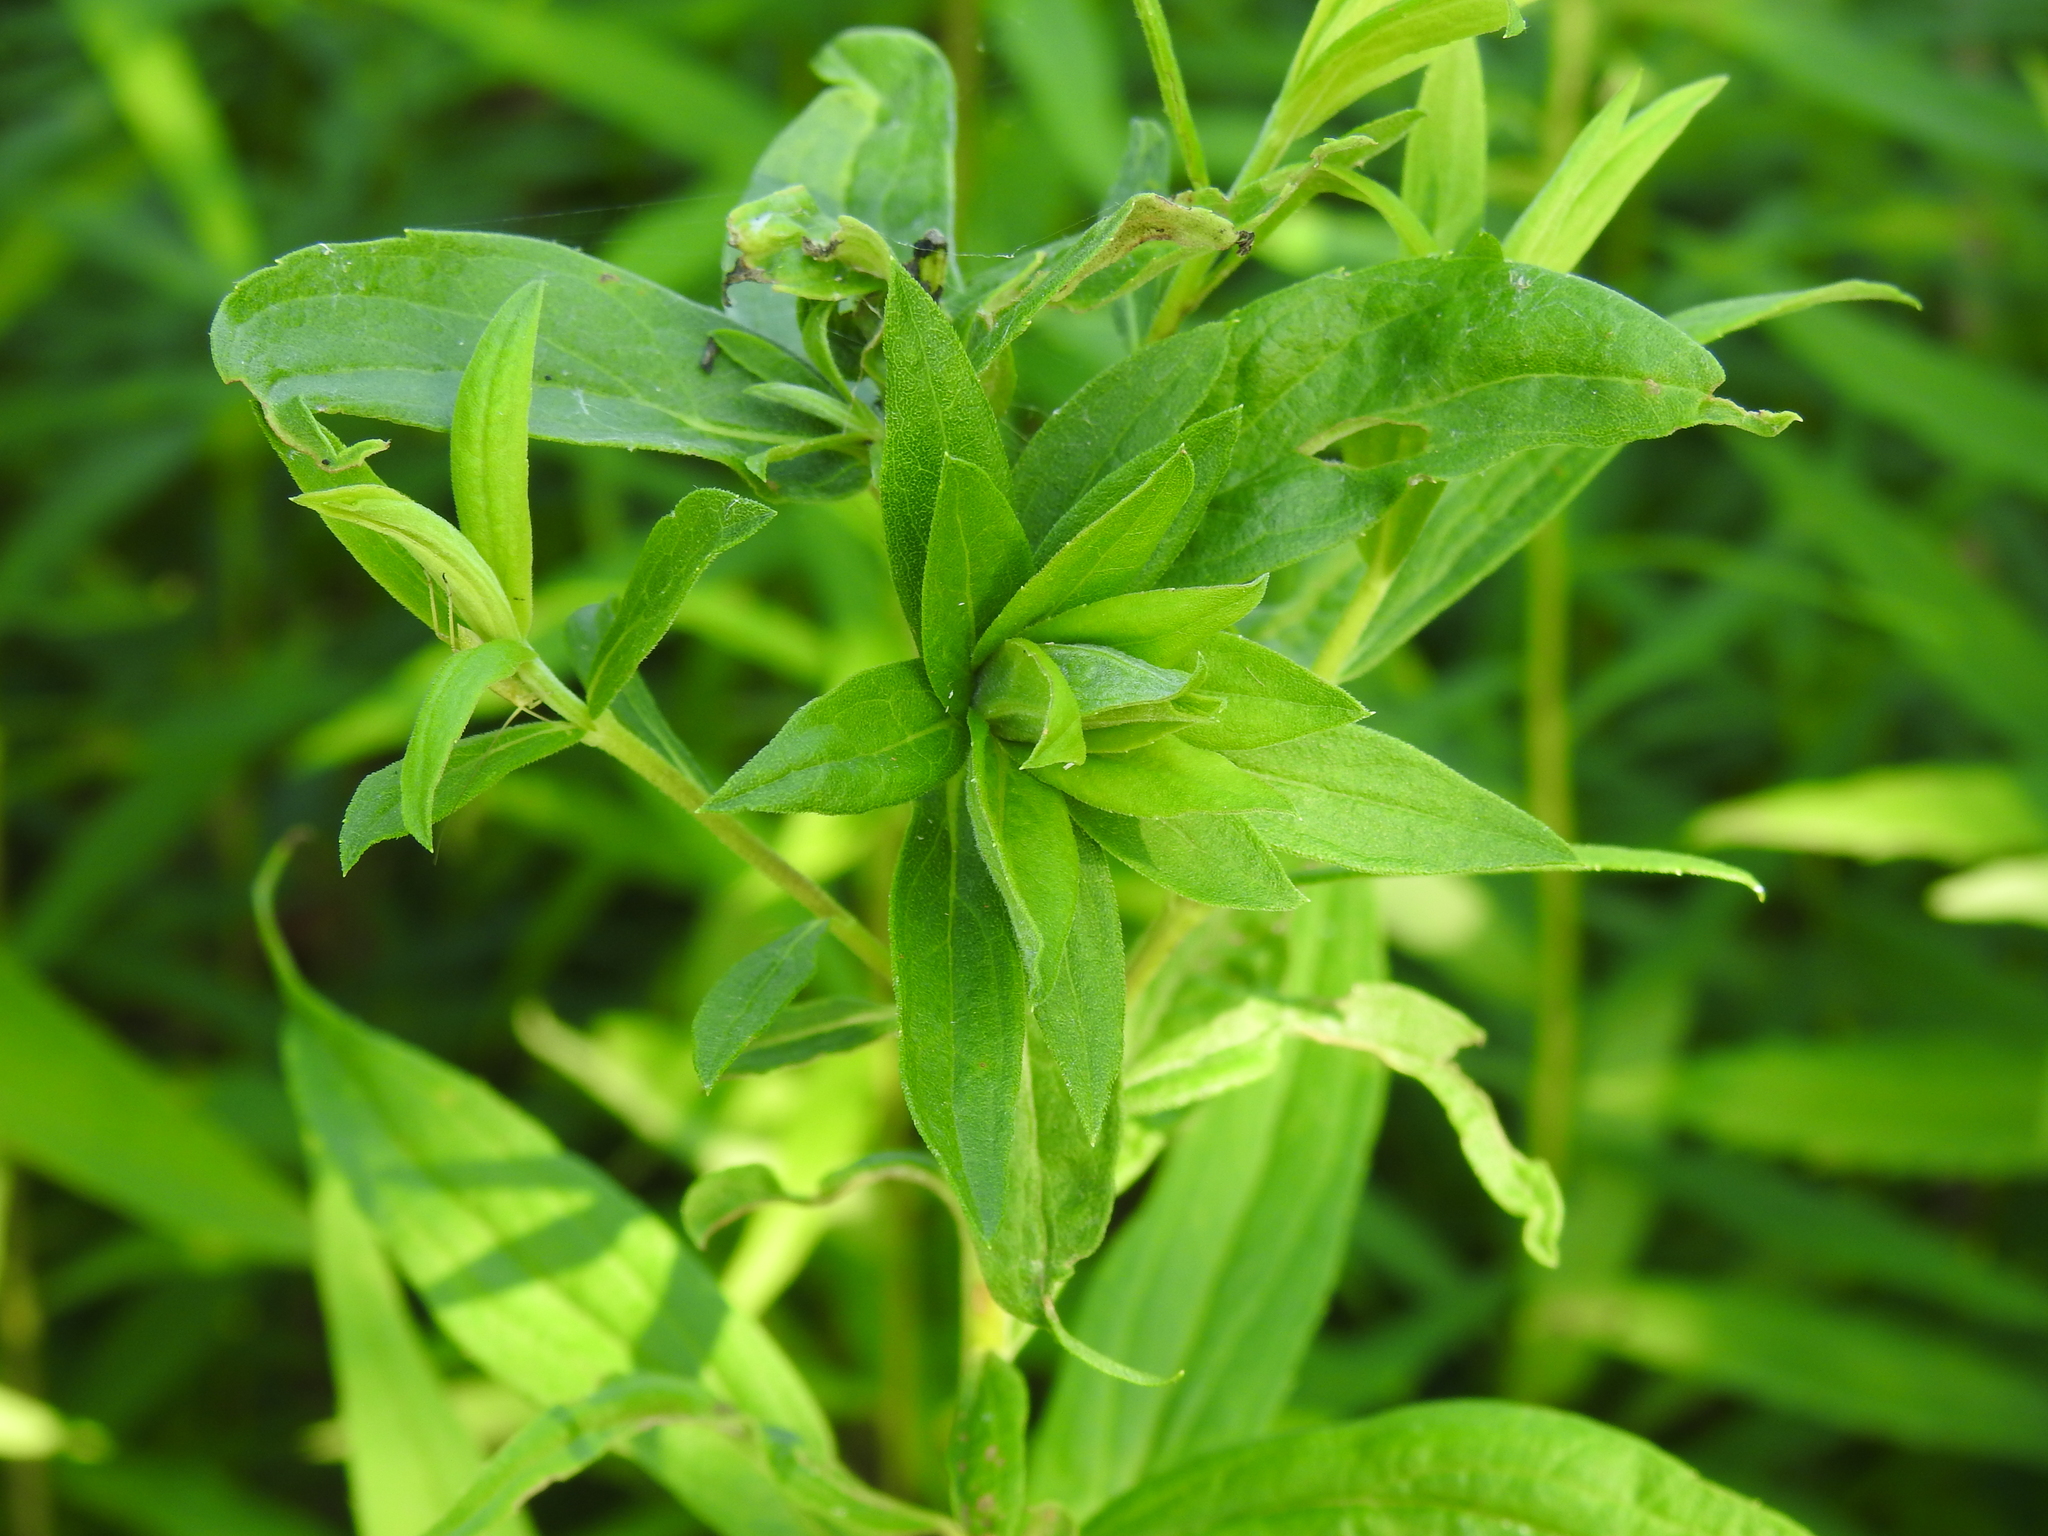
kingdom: Animalia
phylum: Arthropoda
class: Insecta
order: Diptera
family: Cecidomyiidae
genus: Rhopalomyia
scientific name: Rhopalomyia solidaginis
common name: Goldenrod bunch gall midge
